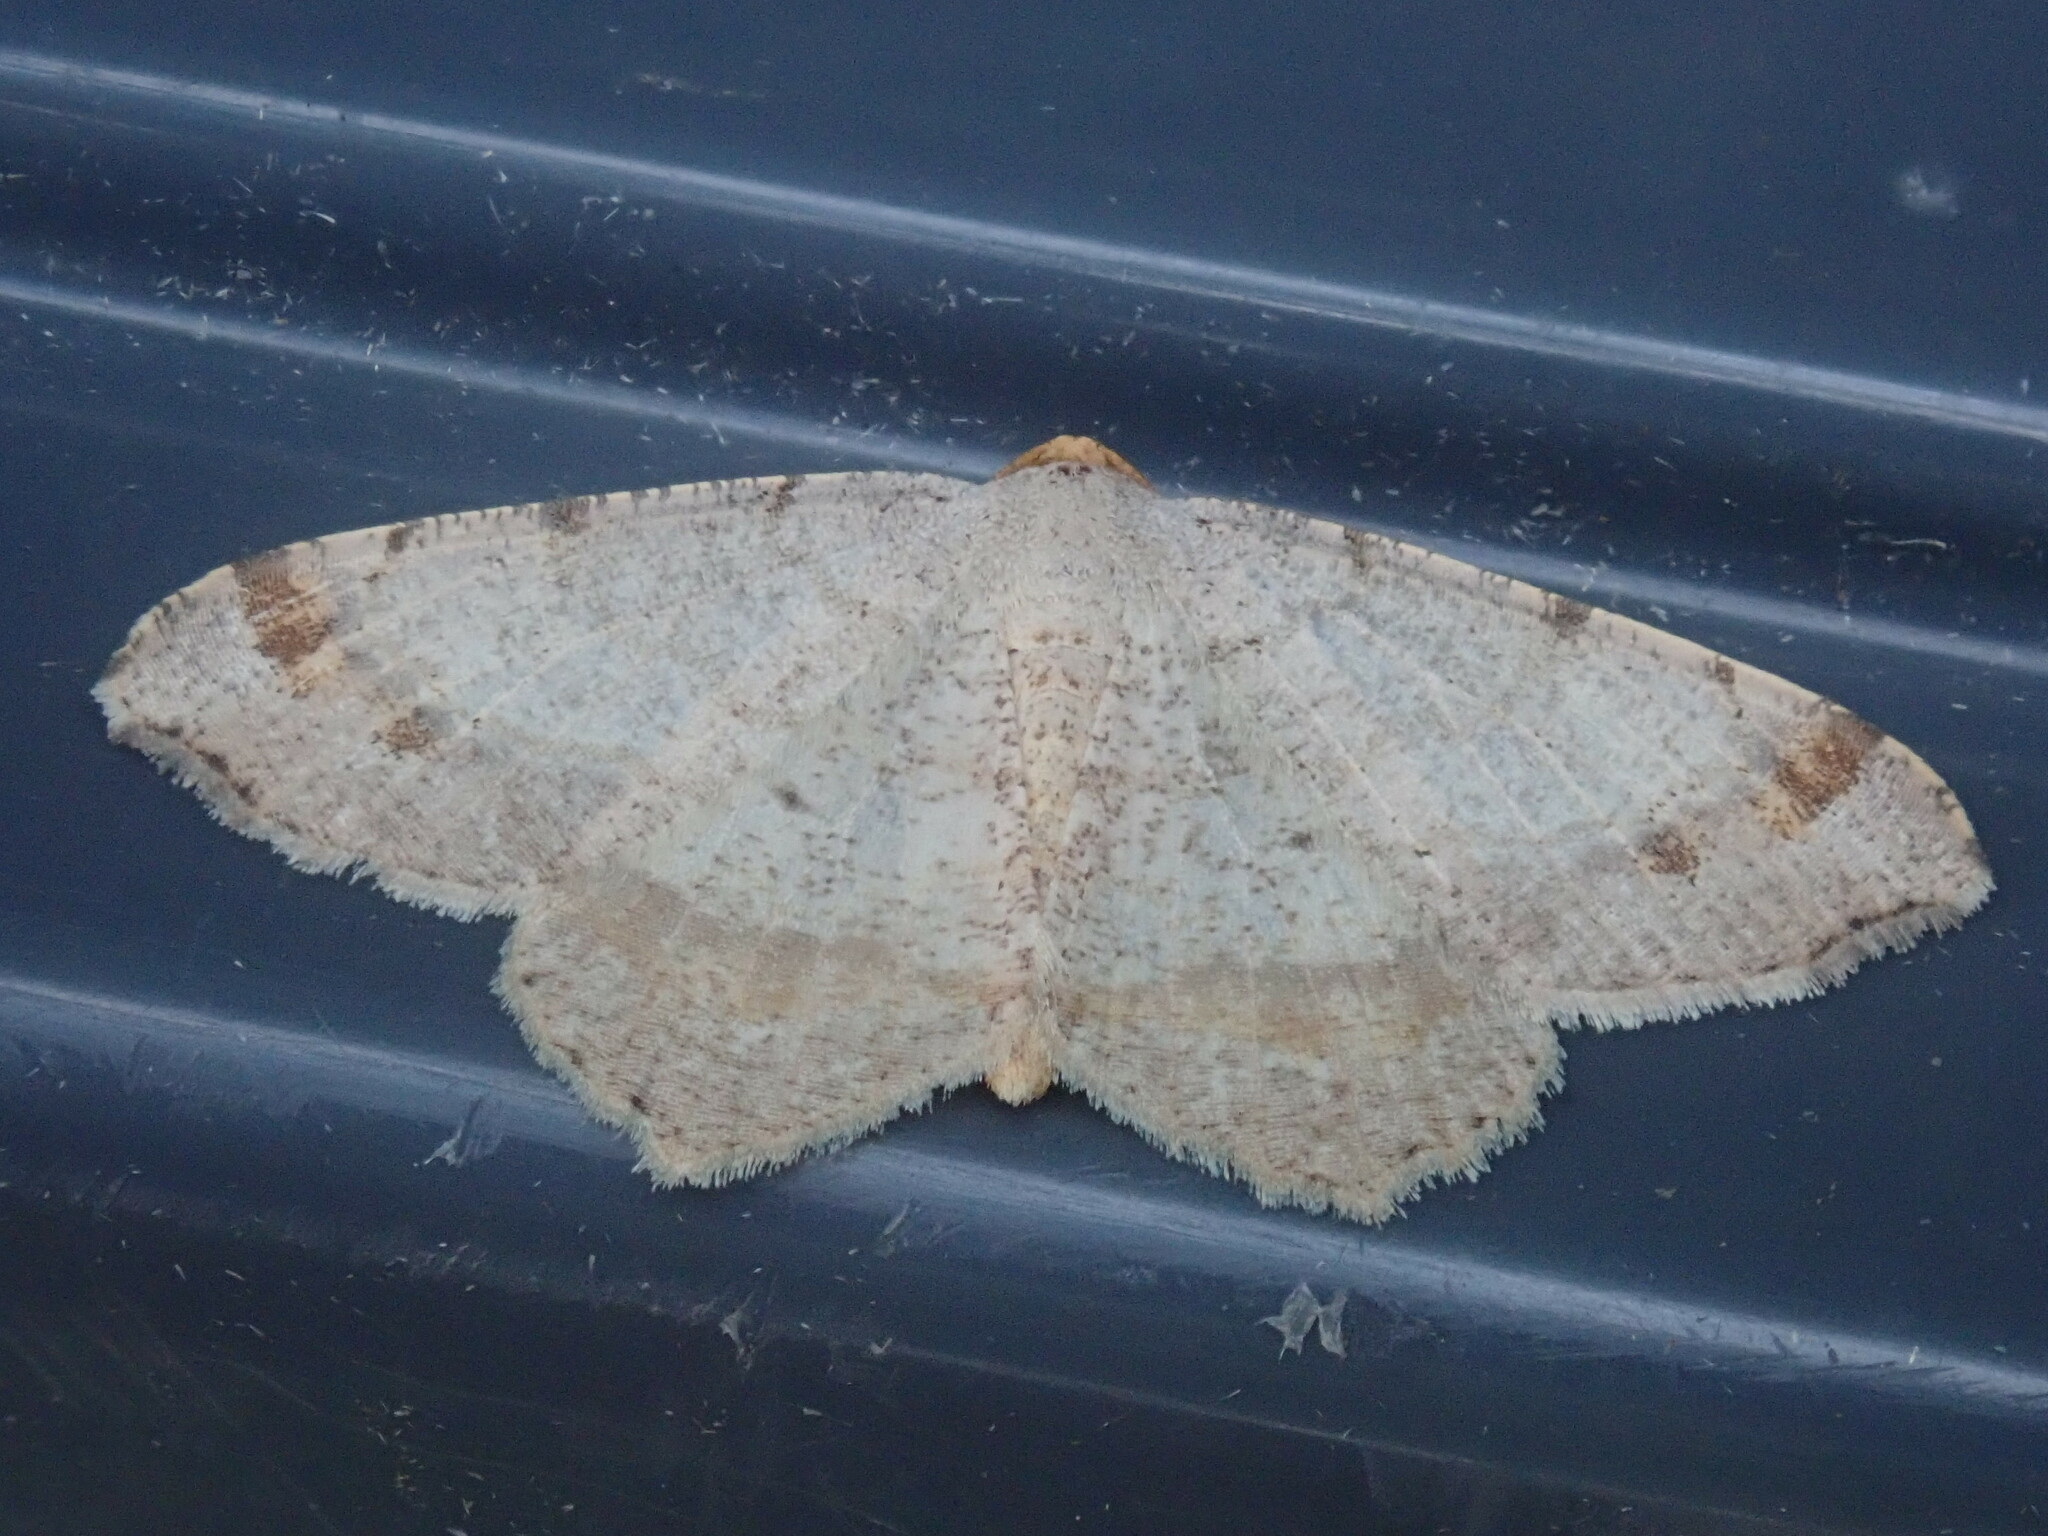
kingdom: Animalia
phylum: Arthropoda
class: Insecta
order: Lepidoptera
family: Geometridae
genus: Macaria
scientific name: Macaria bisignata
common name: Red-headed inchworm
